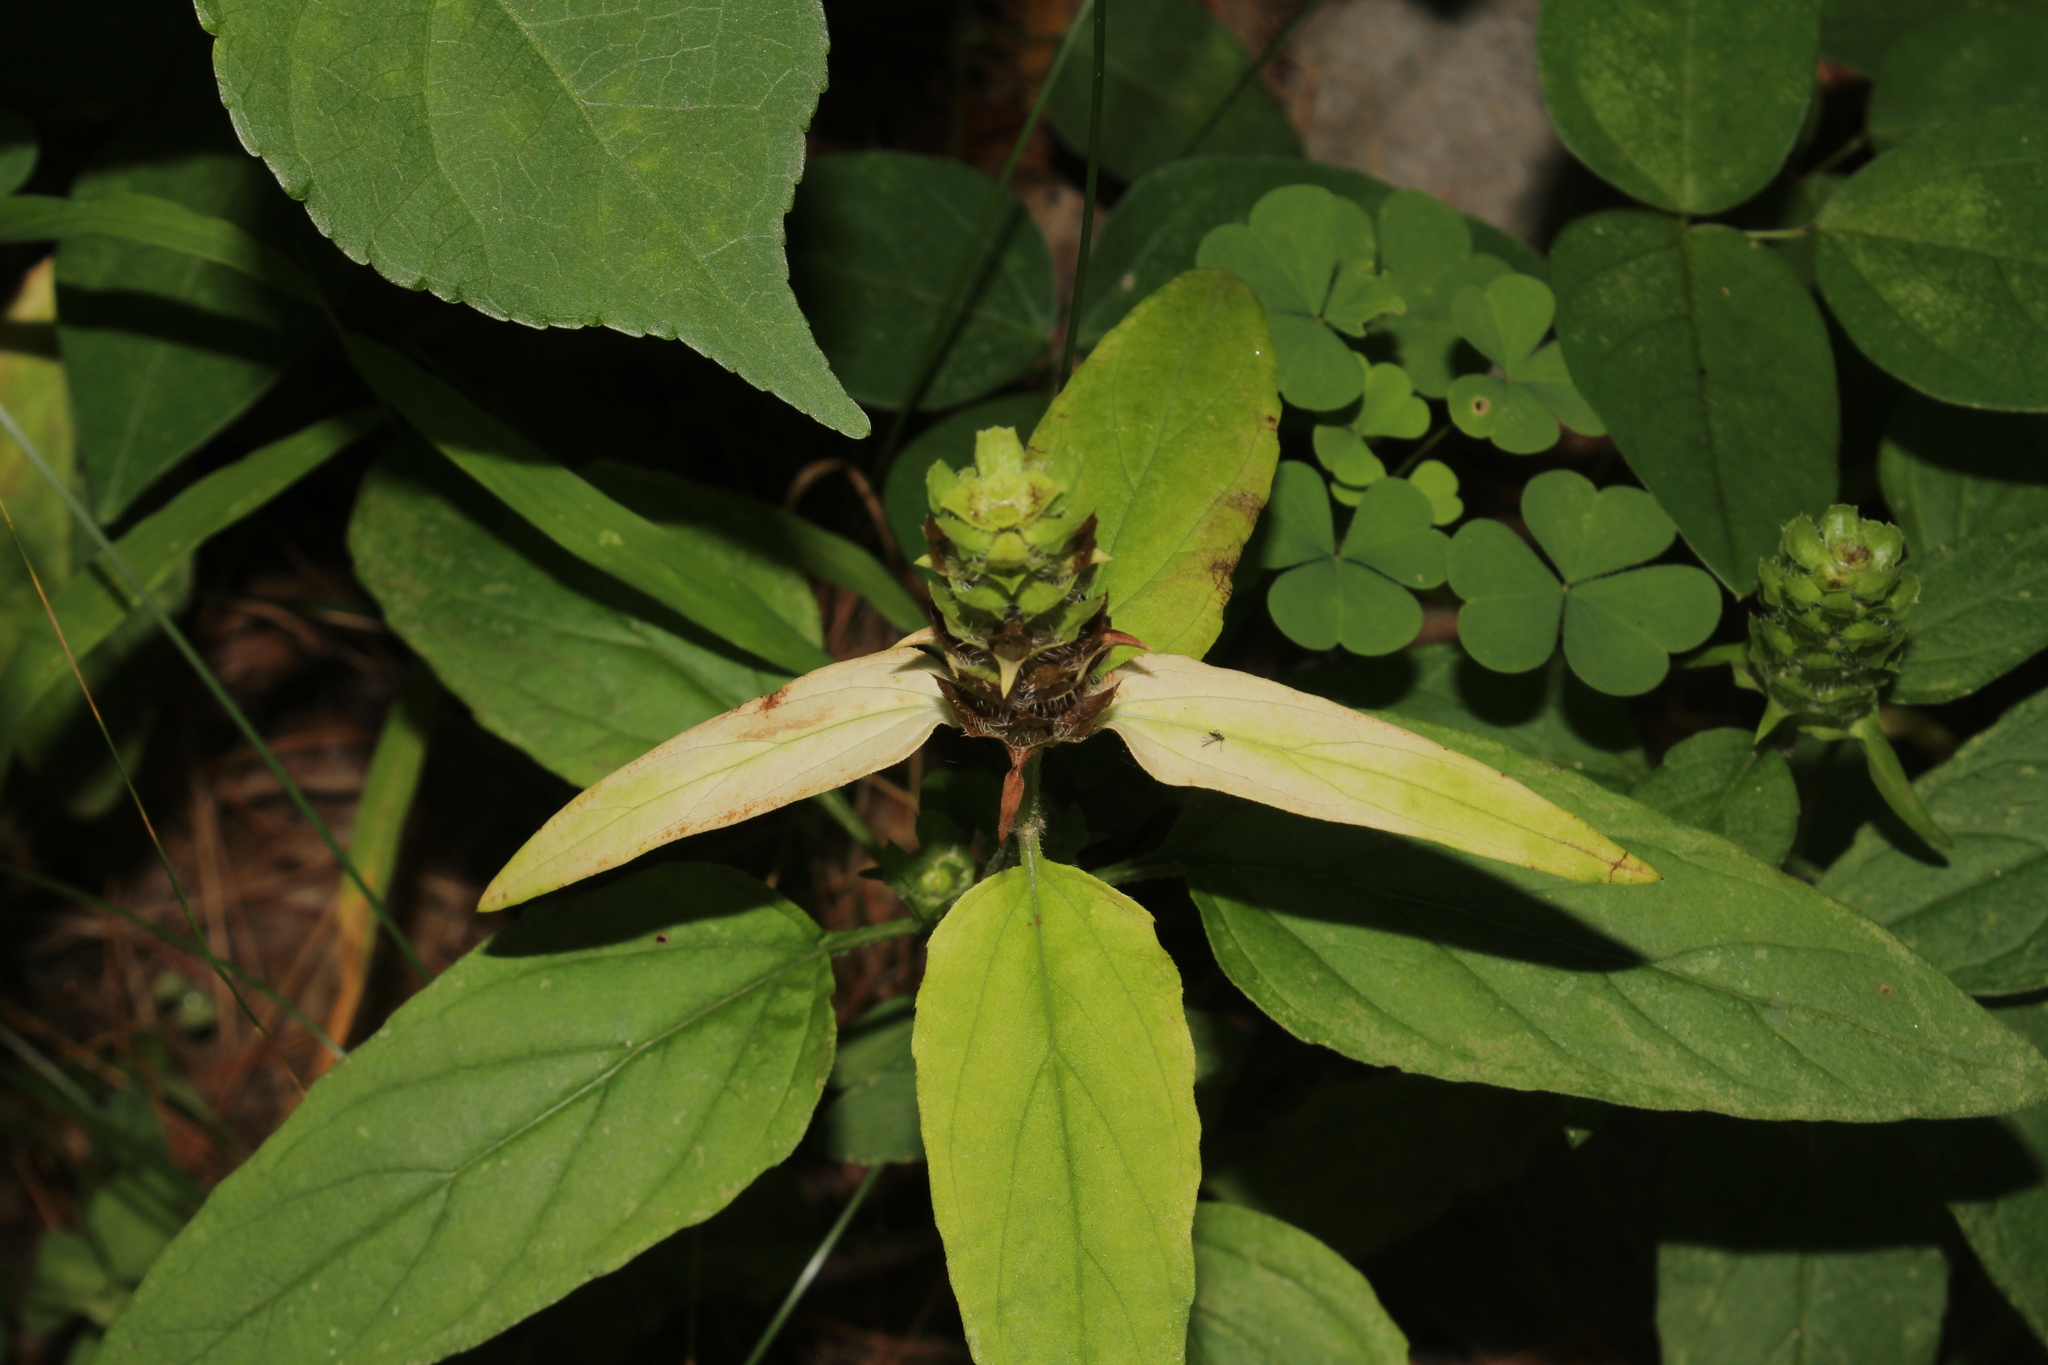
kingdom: Plantae
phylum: Tracheophyta
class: Magnoliopsida
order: Lamiales
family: Lamiaceae
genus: Prunella
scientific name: Prunella vulgaris
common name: Heal-all
